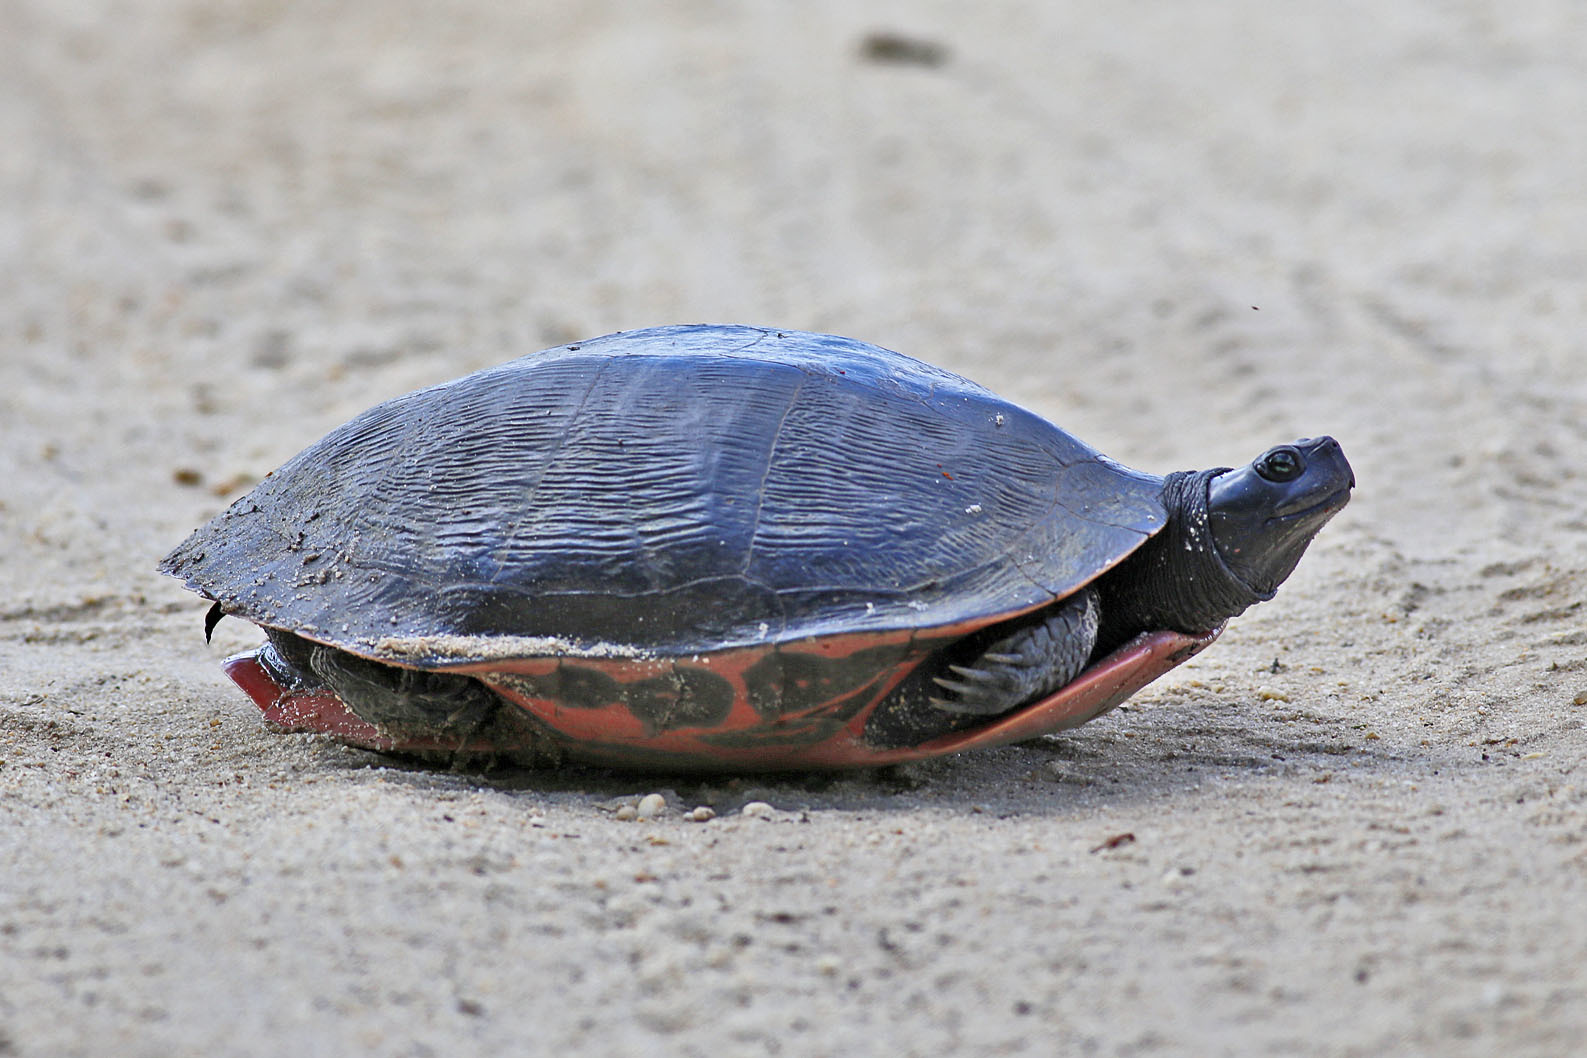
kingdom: Animalia
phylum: Chordata
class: Testudines
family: Emydidae
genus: Pseudemys
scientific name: Pseudemys rubriventris
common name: American red-bellied turtle
